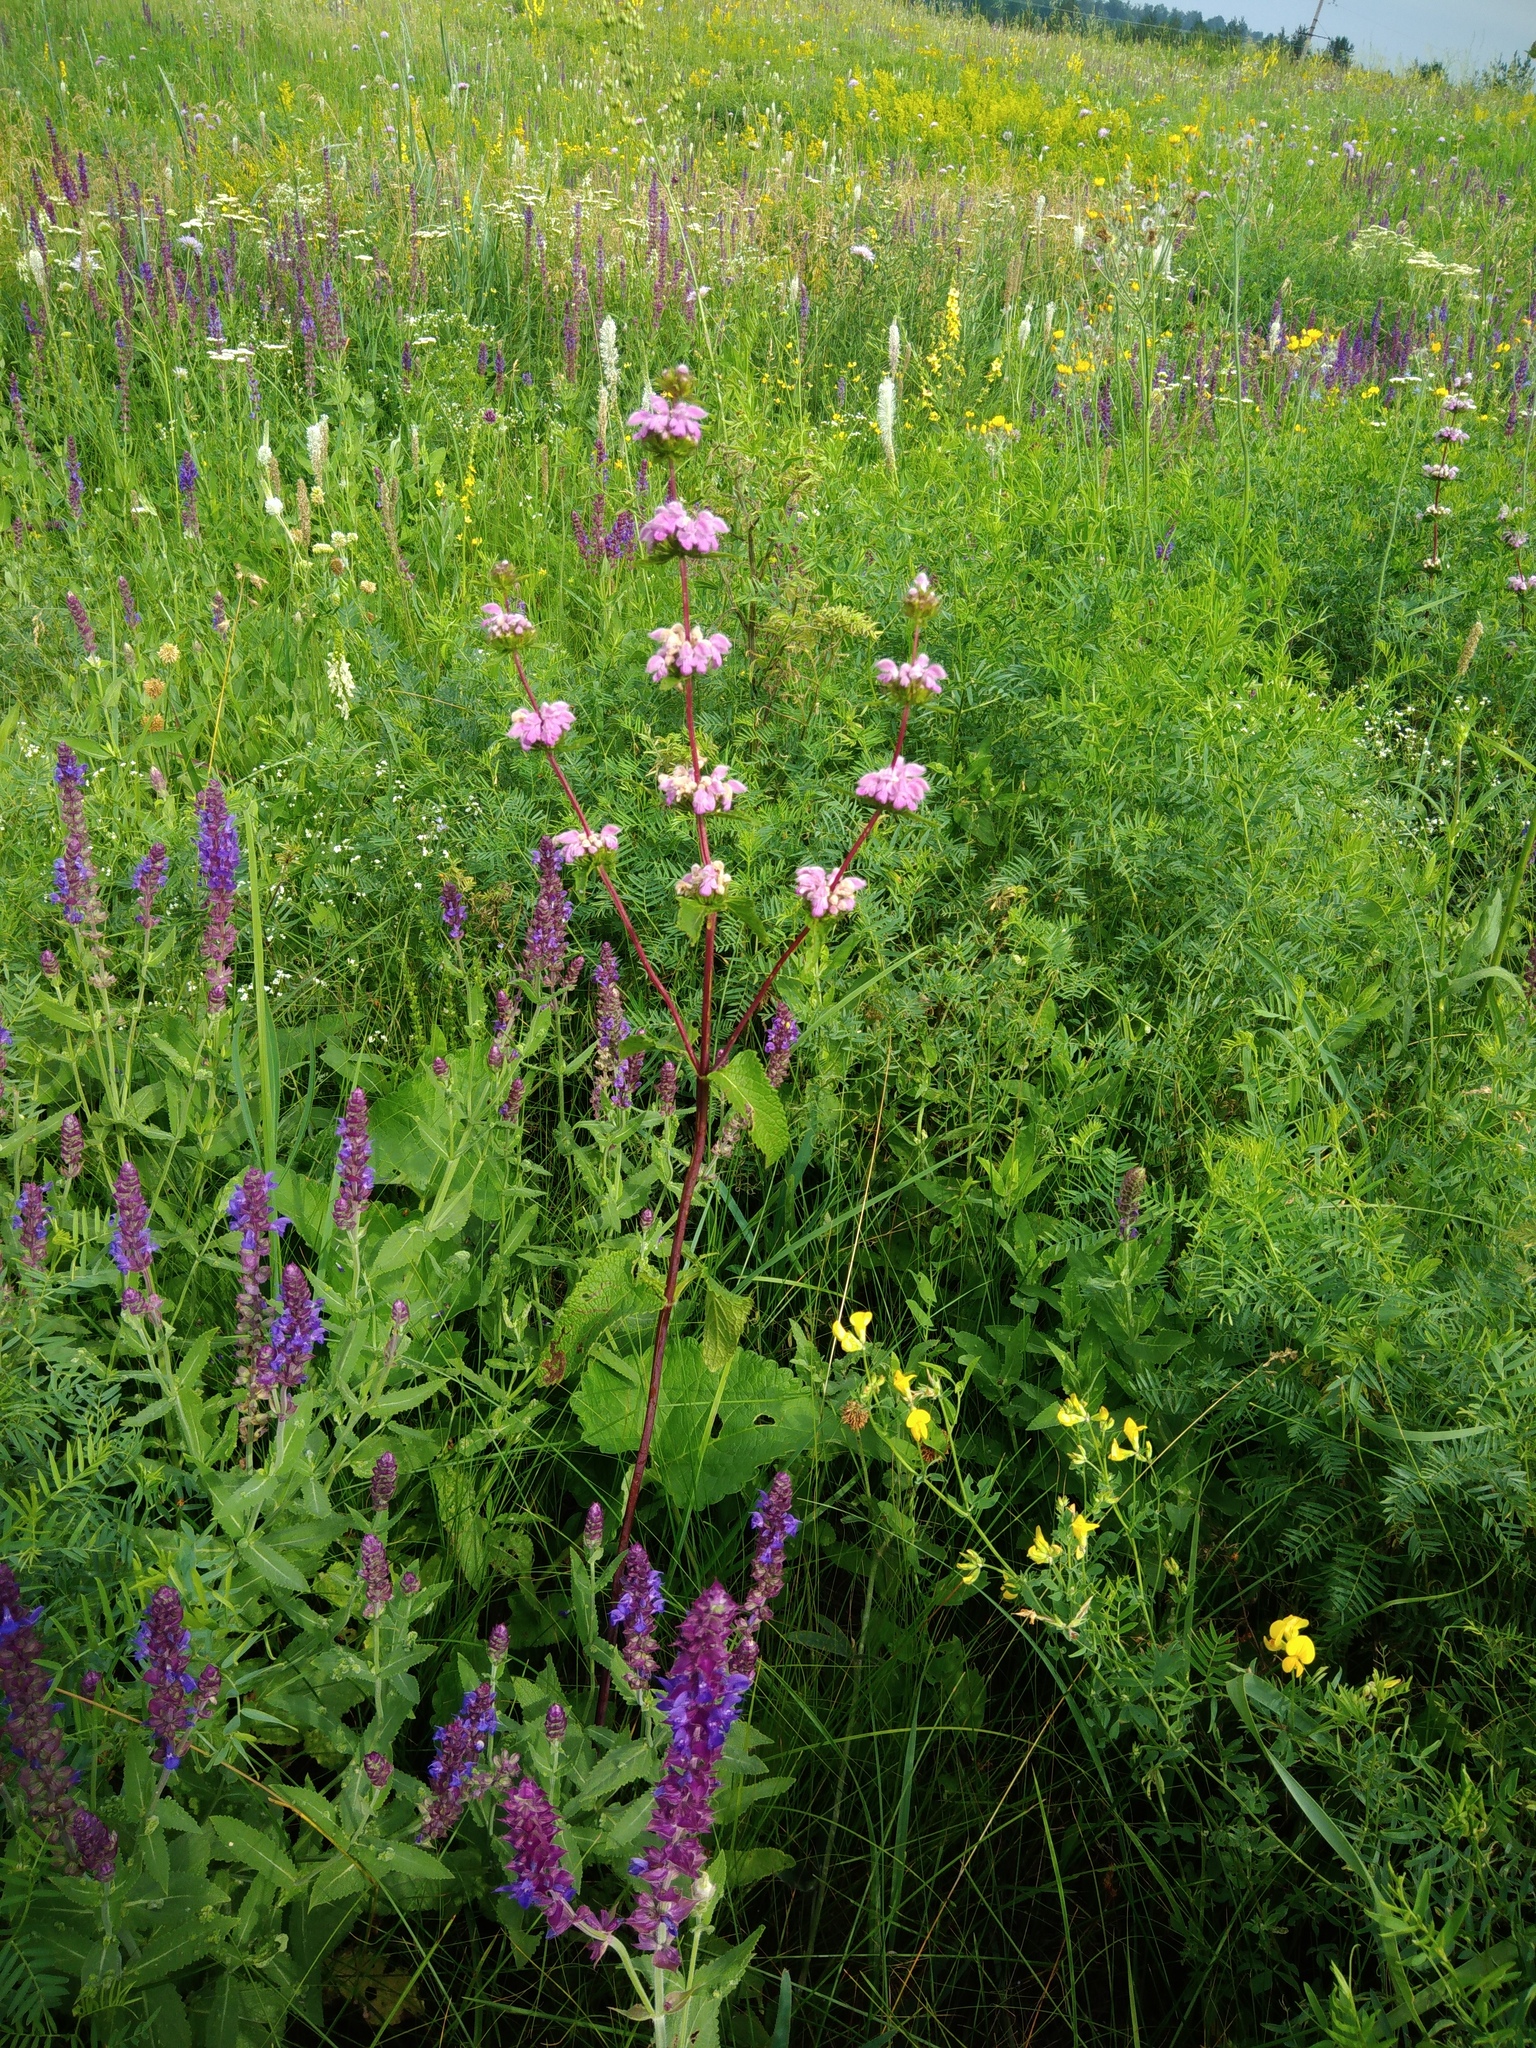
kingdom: Plantae
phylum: Tracheophyta
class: Magnoliopsida
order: Lamiales
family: Lamiaceae
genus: Phlomoides
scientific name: Phlomoides tuberosa
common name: Tuberous jerusalem sage
